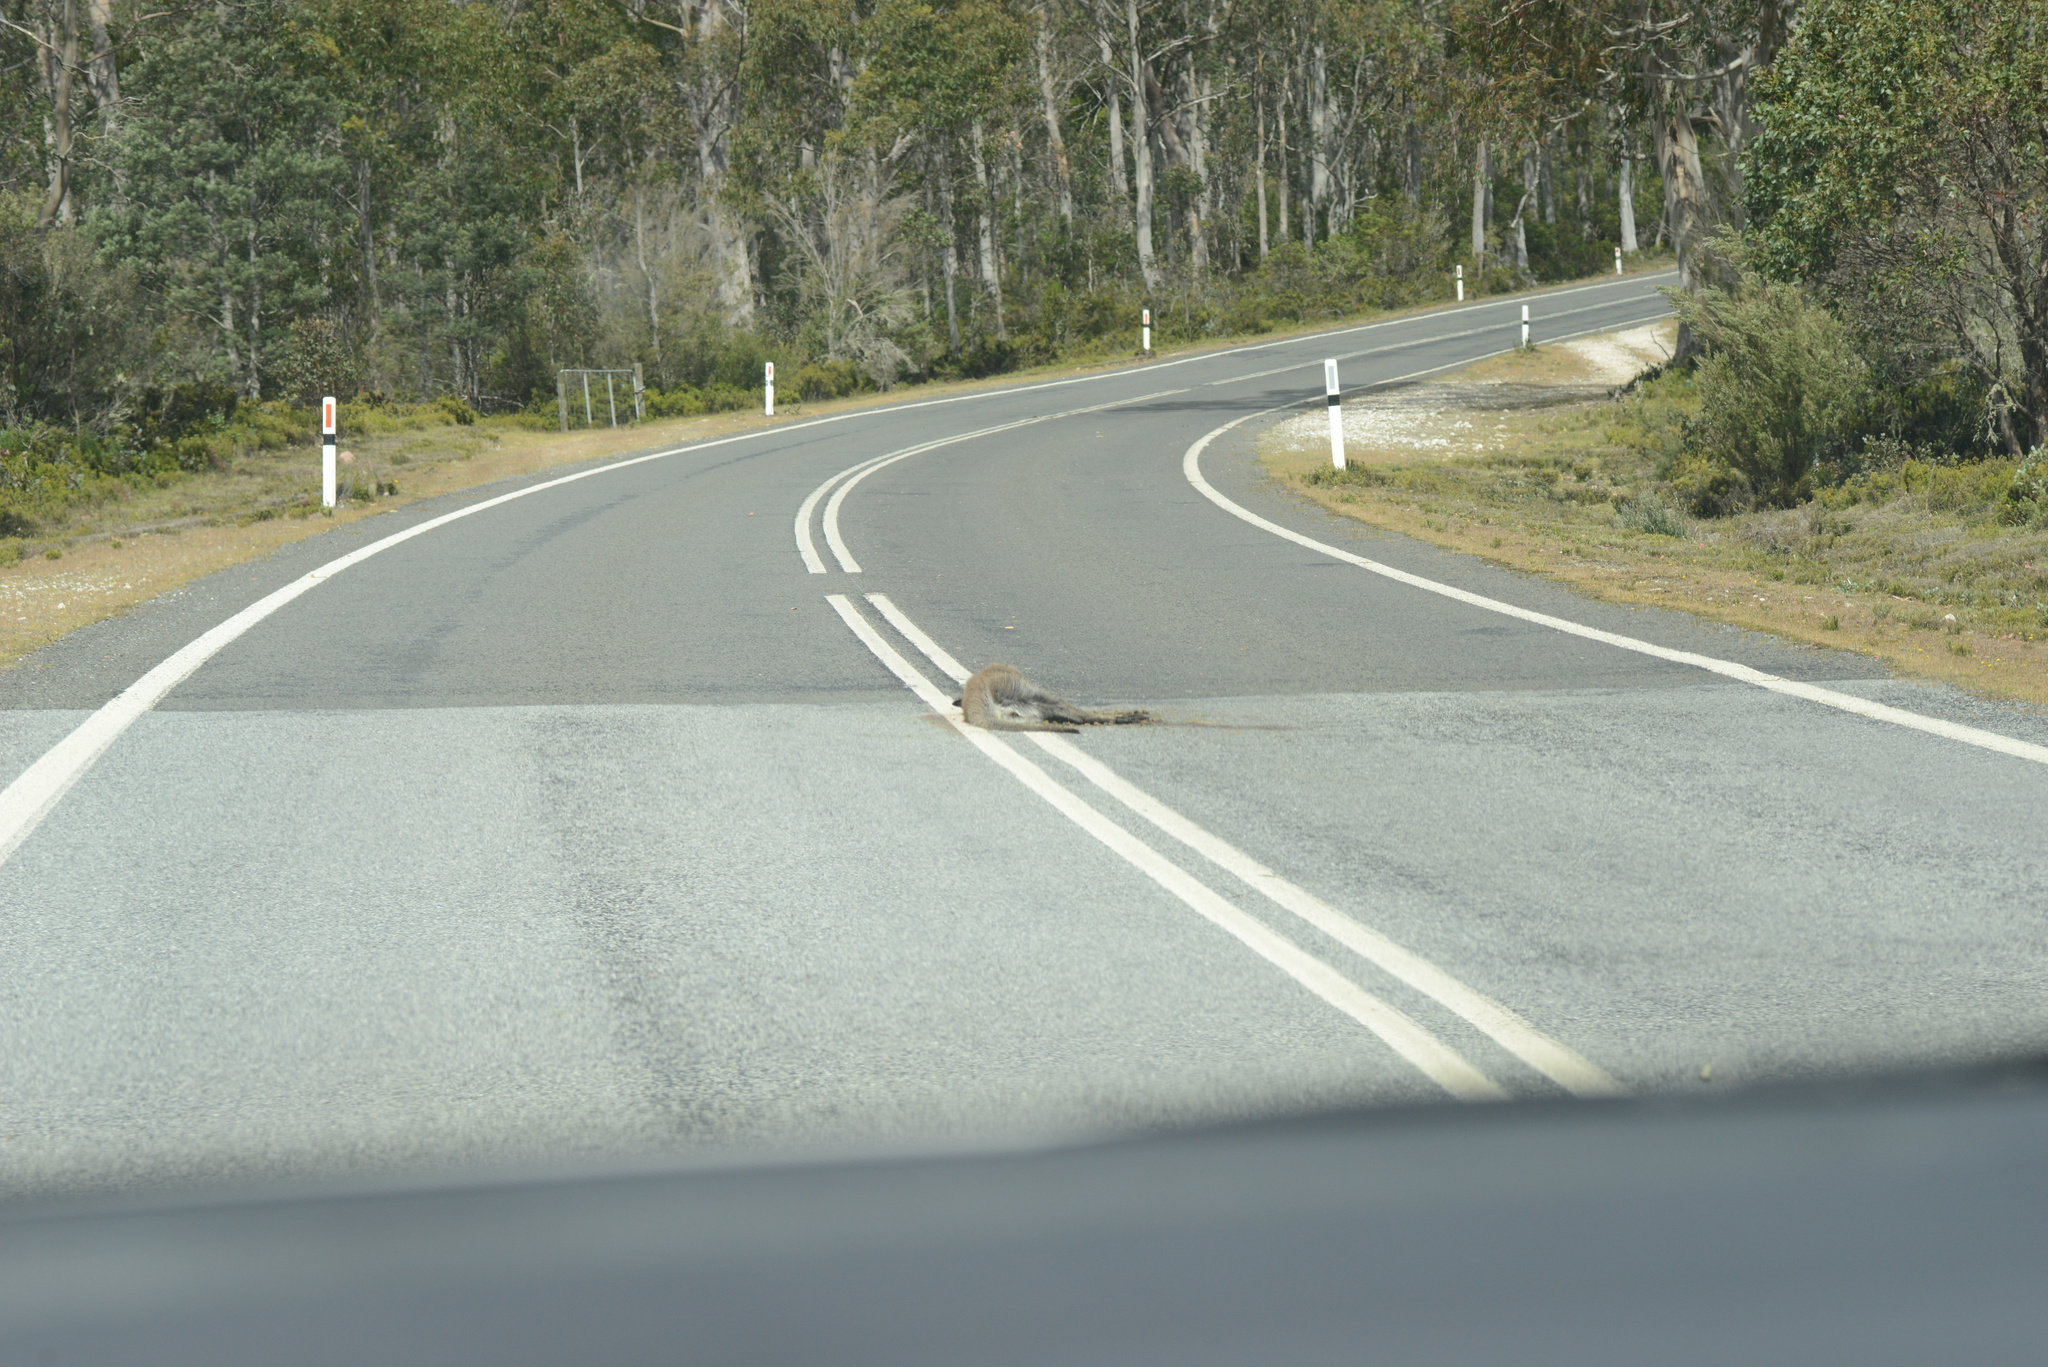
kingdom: Animalia
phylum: Chordata
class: Mammalia
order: Diprotodontia
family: Macropodidae
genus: Notamacropus
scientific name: Notamacropus rufogriseus
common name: Red-necked wallaby
